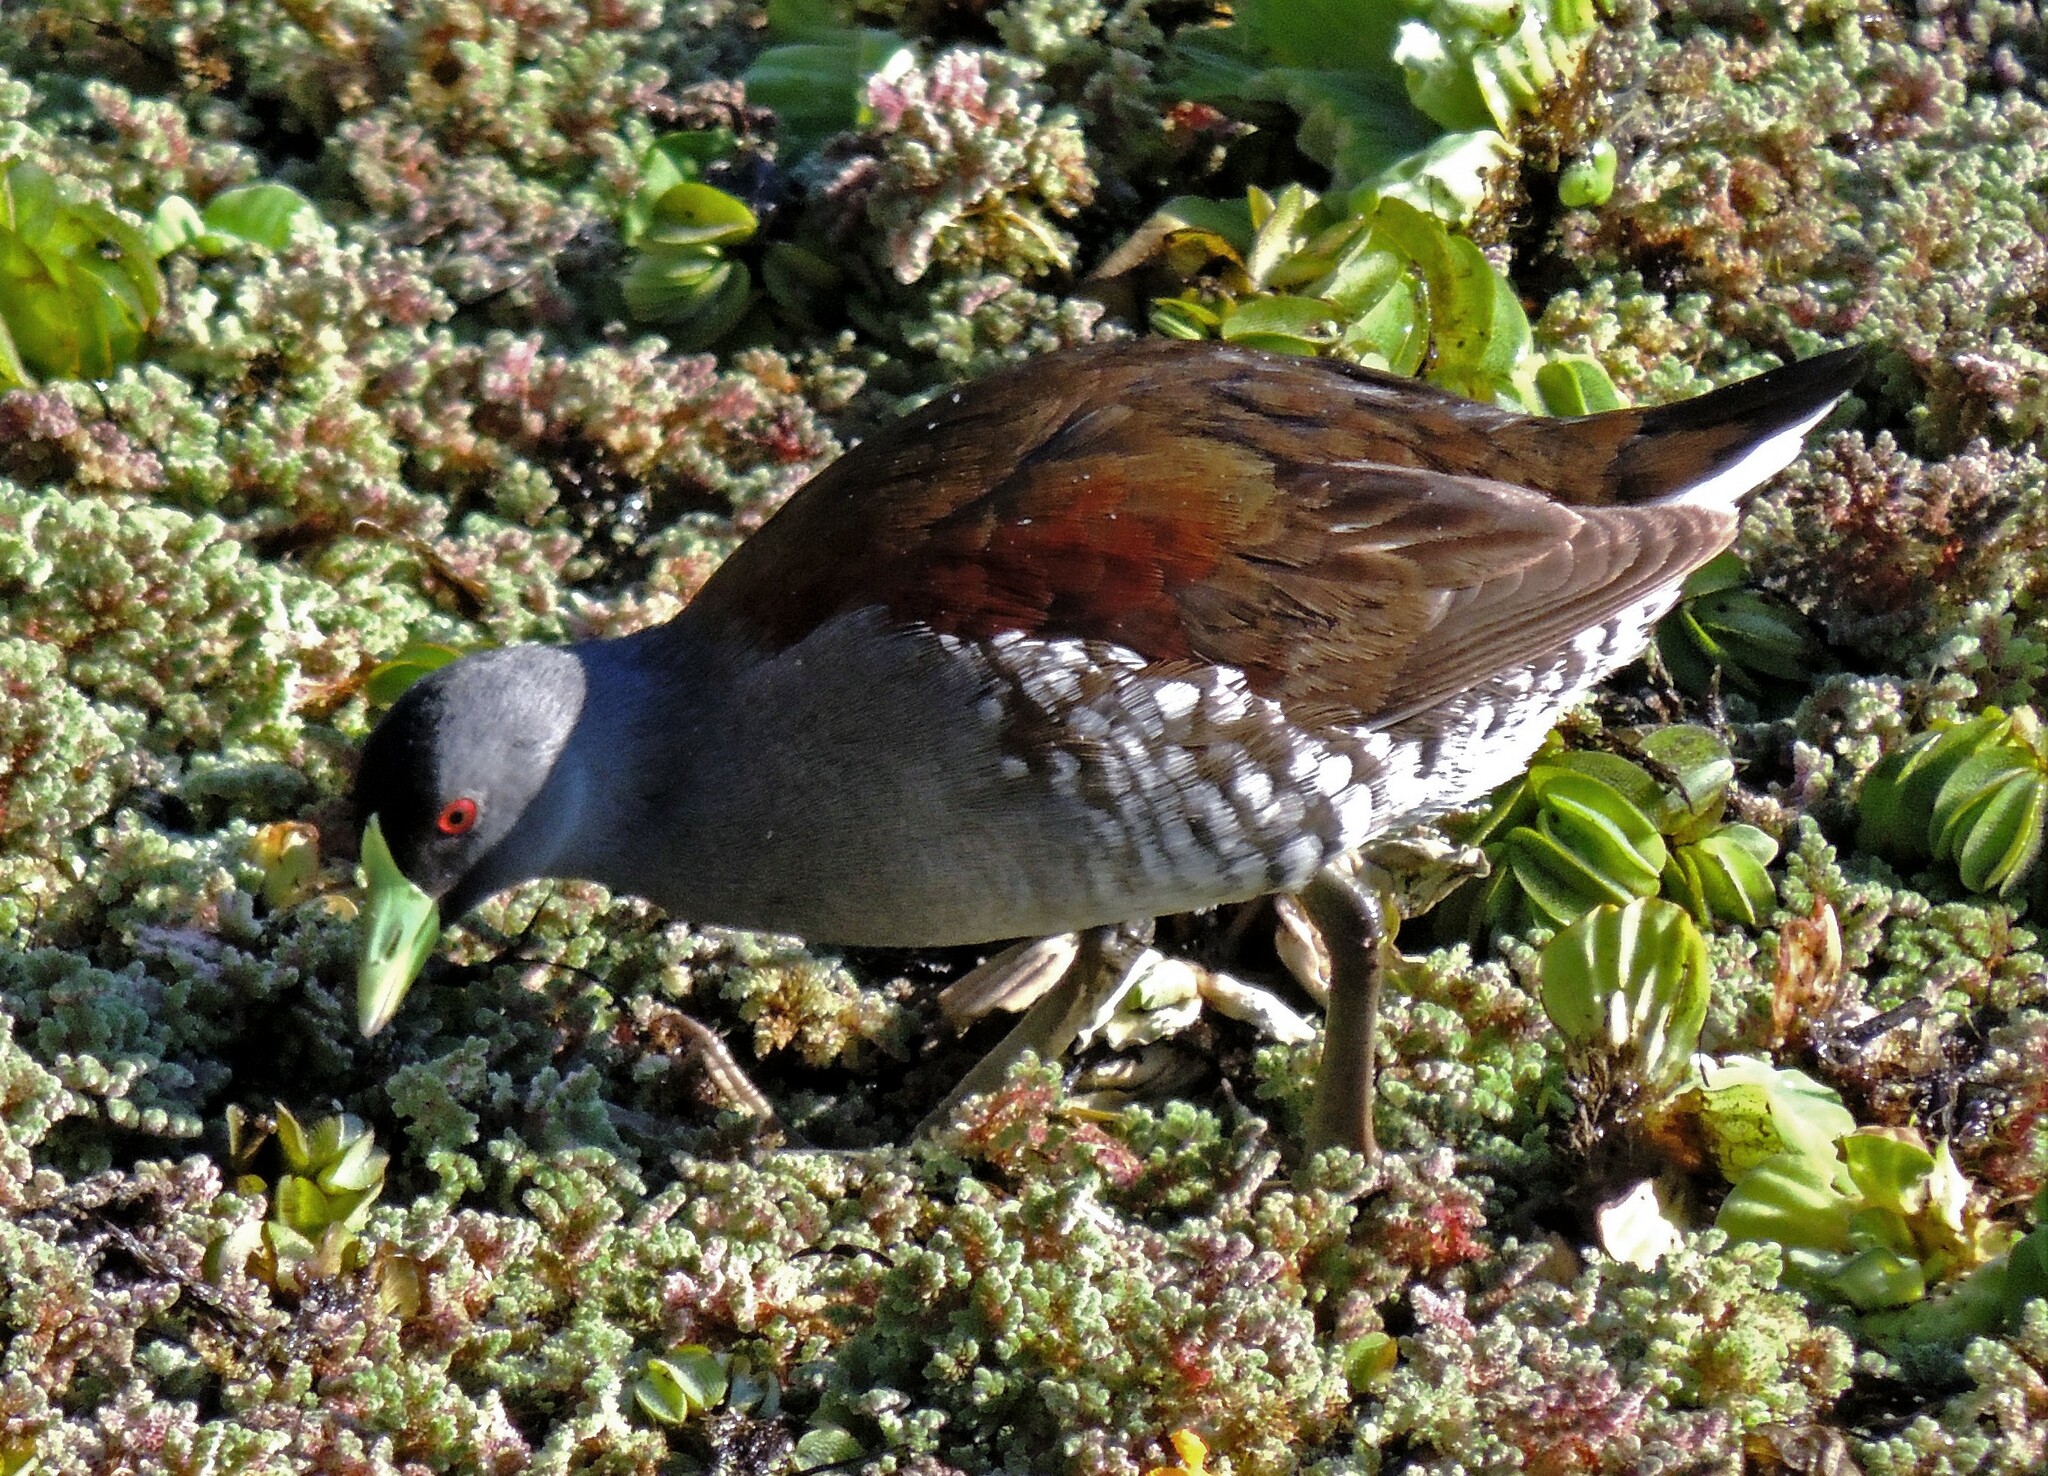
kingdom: Animalia
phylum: Chordata
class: Aves
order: Gruiformes
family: Rallidae
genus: Gallinula
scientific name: Gallinula melanops
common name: Spot-flanked gallinule
